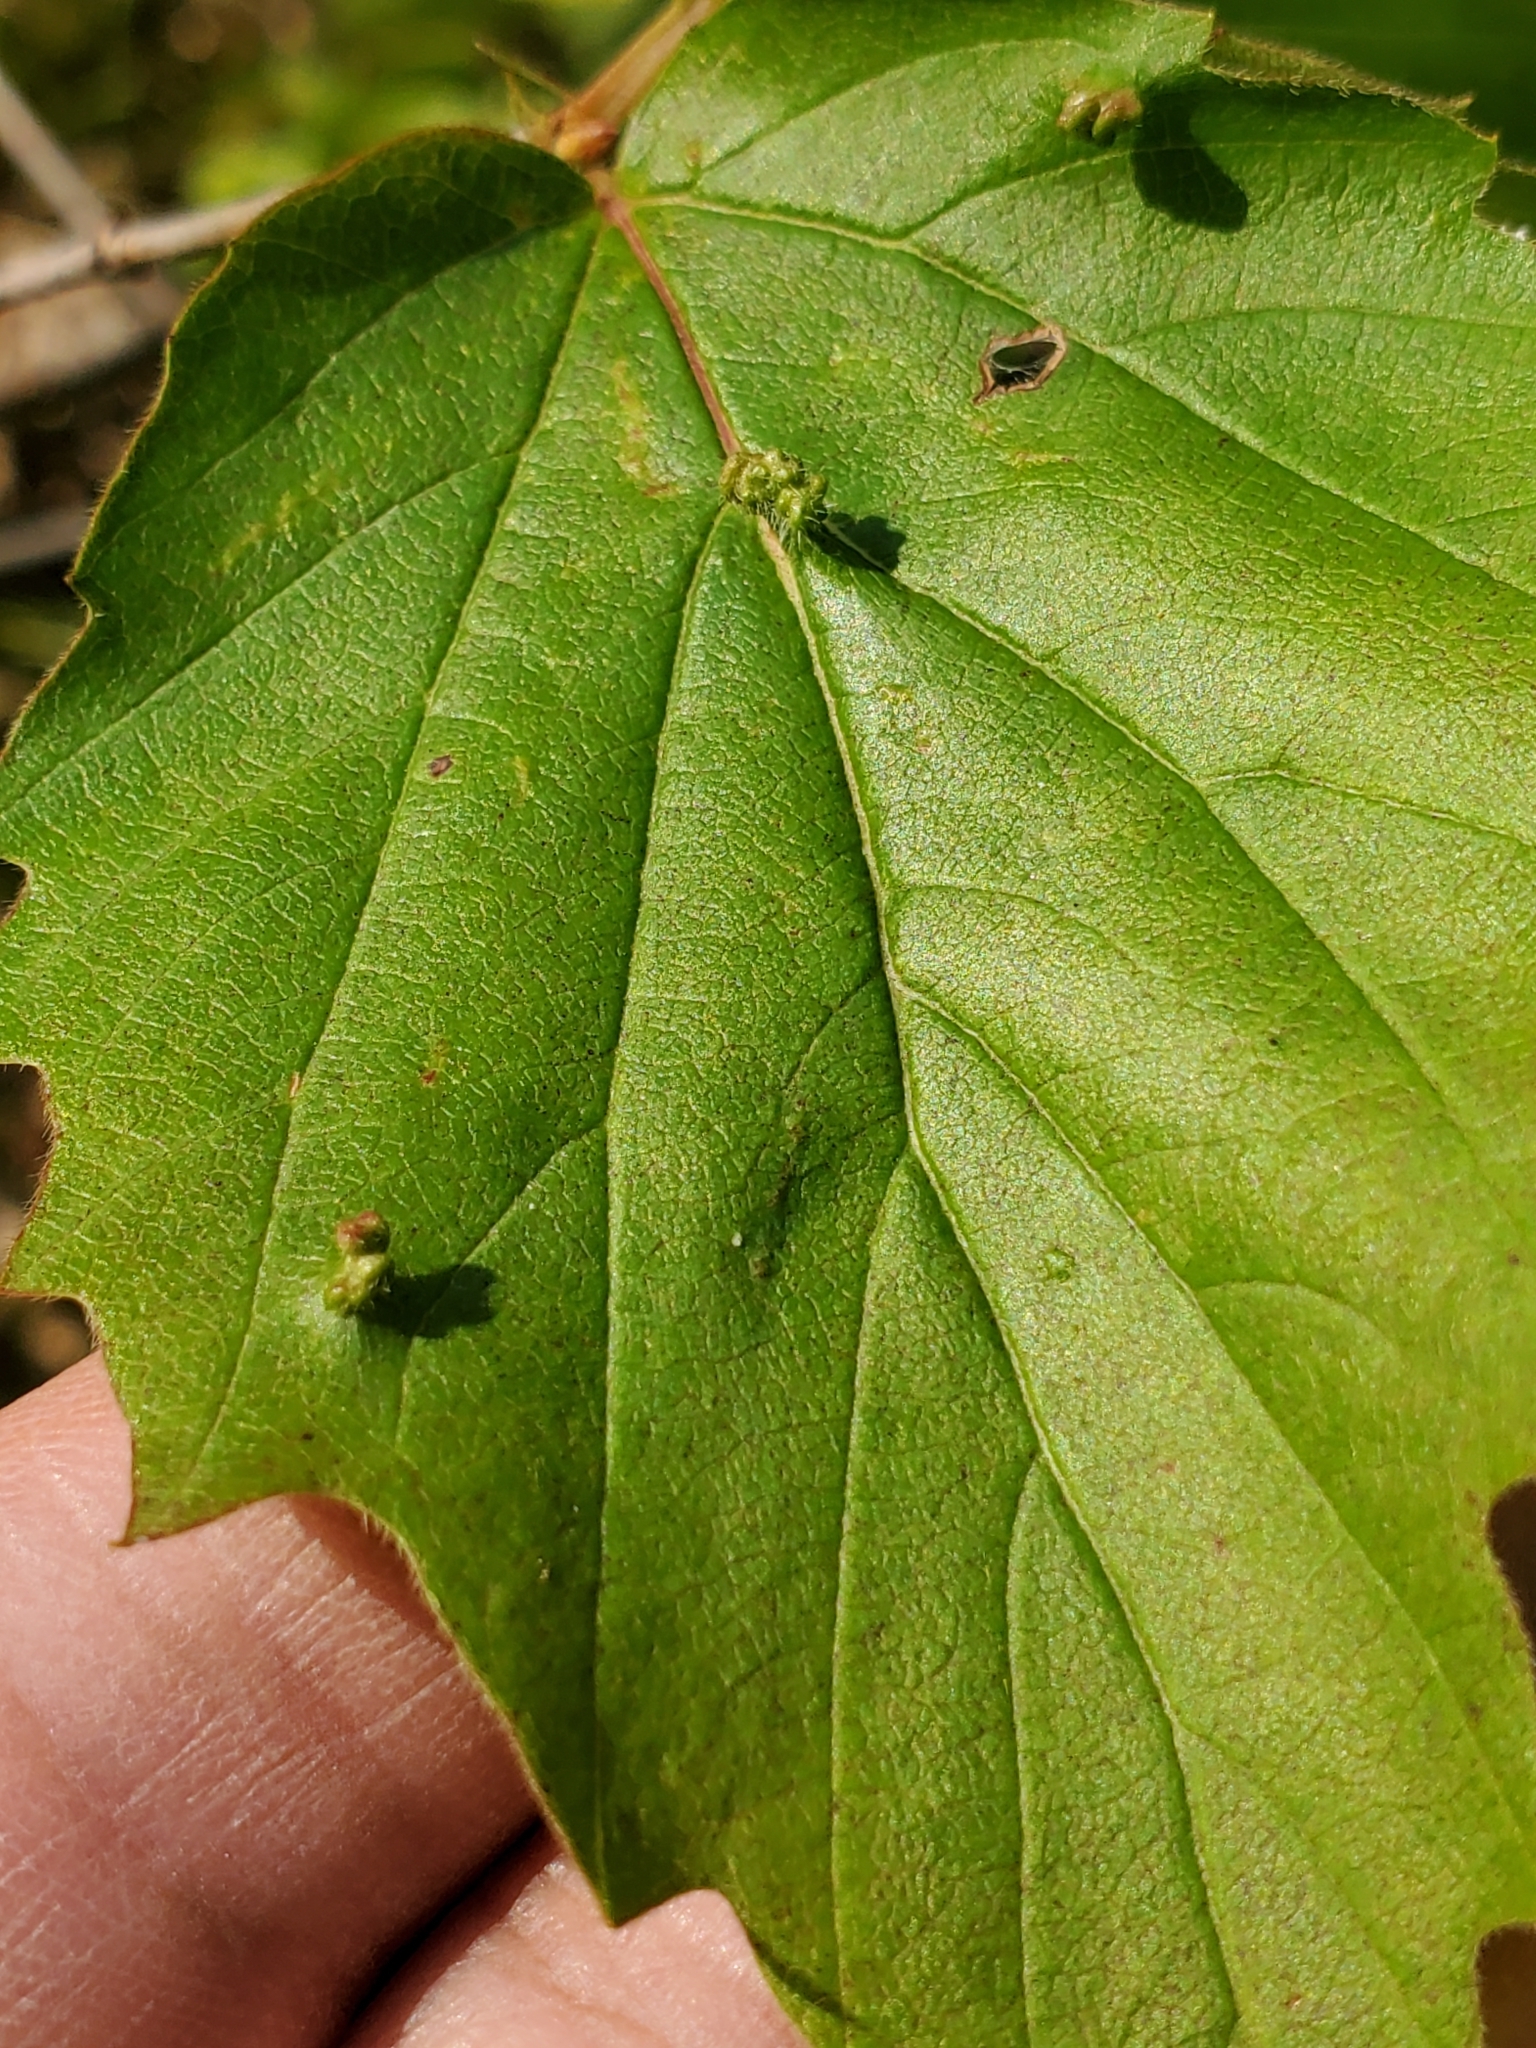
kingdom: Animalia
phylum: Arthropoda
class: Arachnida
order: Trombidiformes
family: Eriophyidae
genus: Eriophyes
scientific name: Eriophyes
